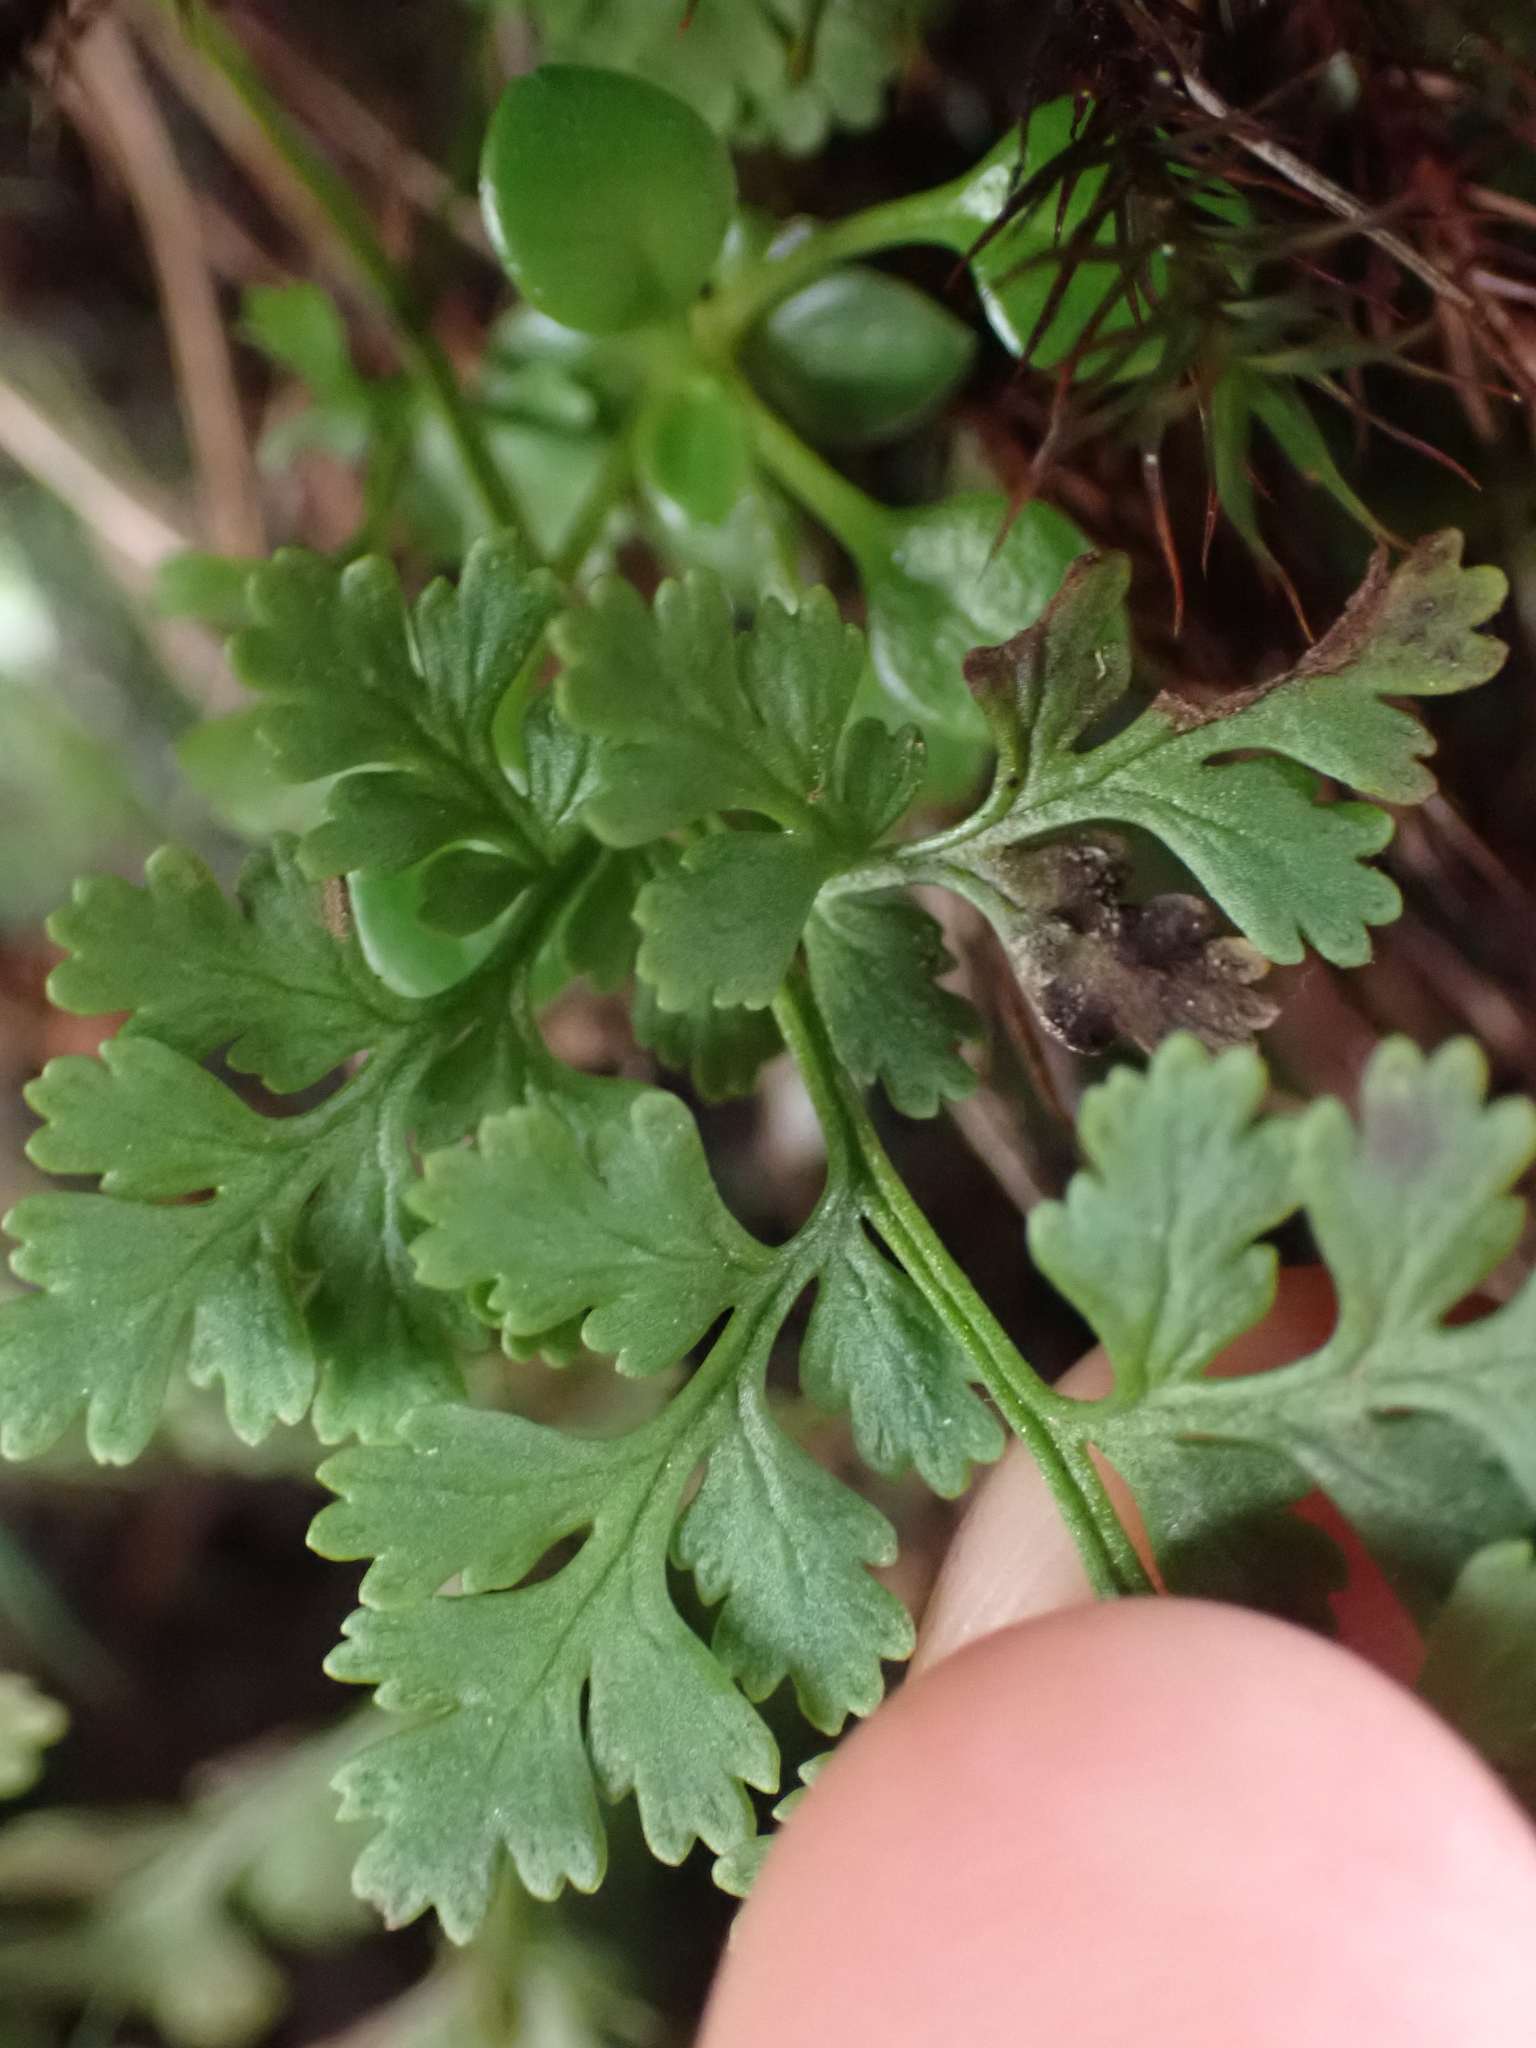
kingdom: Plantae
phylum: Tracheophyta
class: Polypodiopsida
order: Polypodiales
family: Pteridaceae
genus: Cryptogramma
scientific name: Cryptogramma acrostichoides
